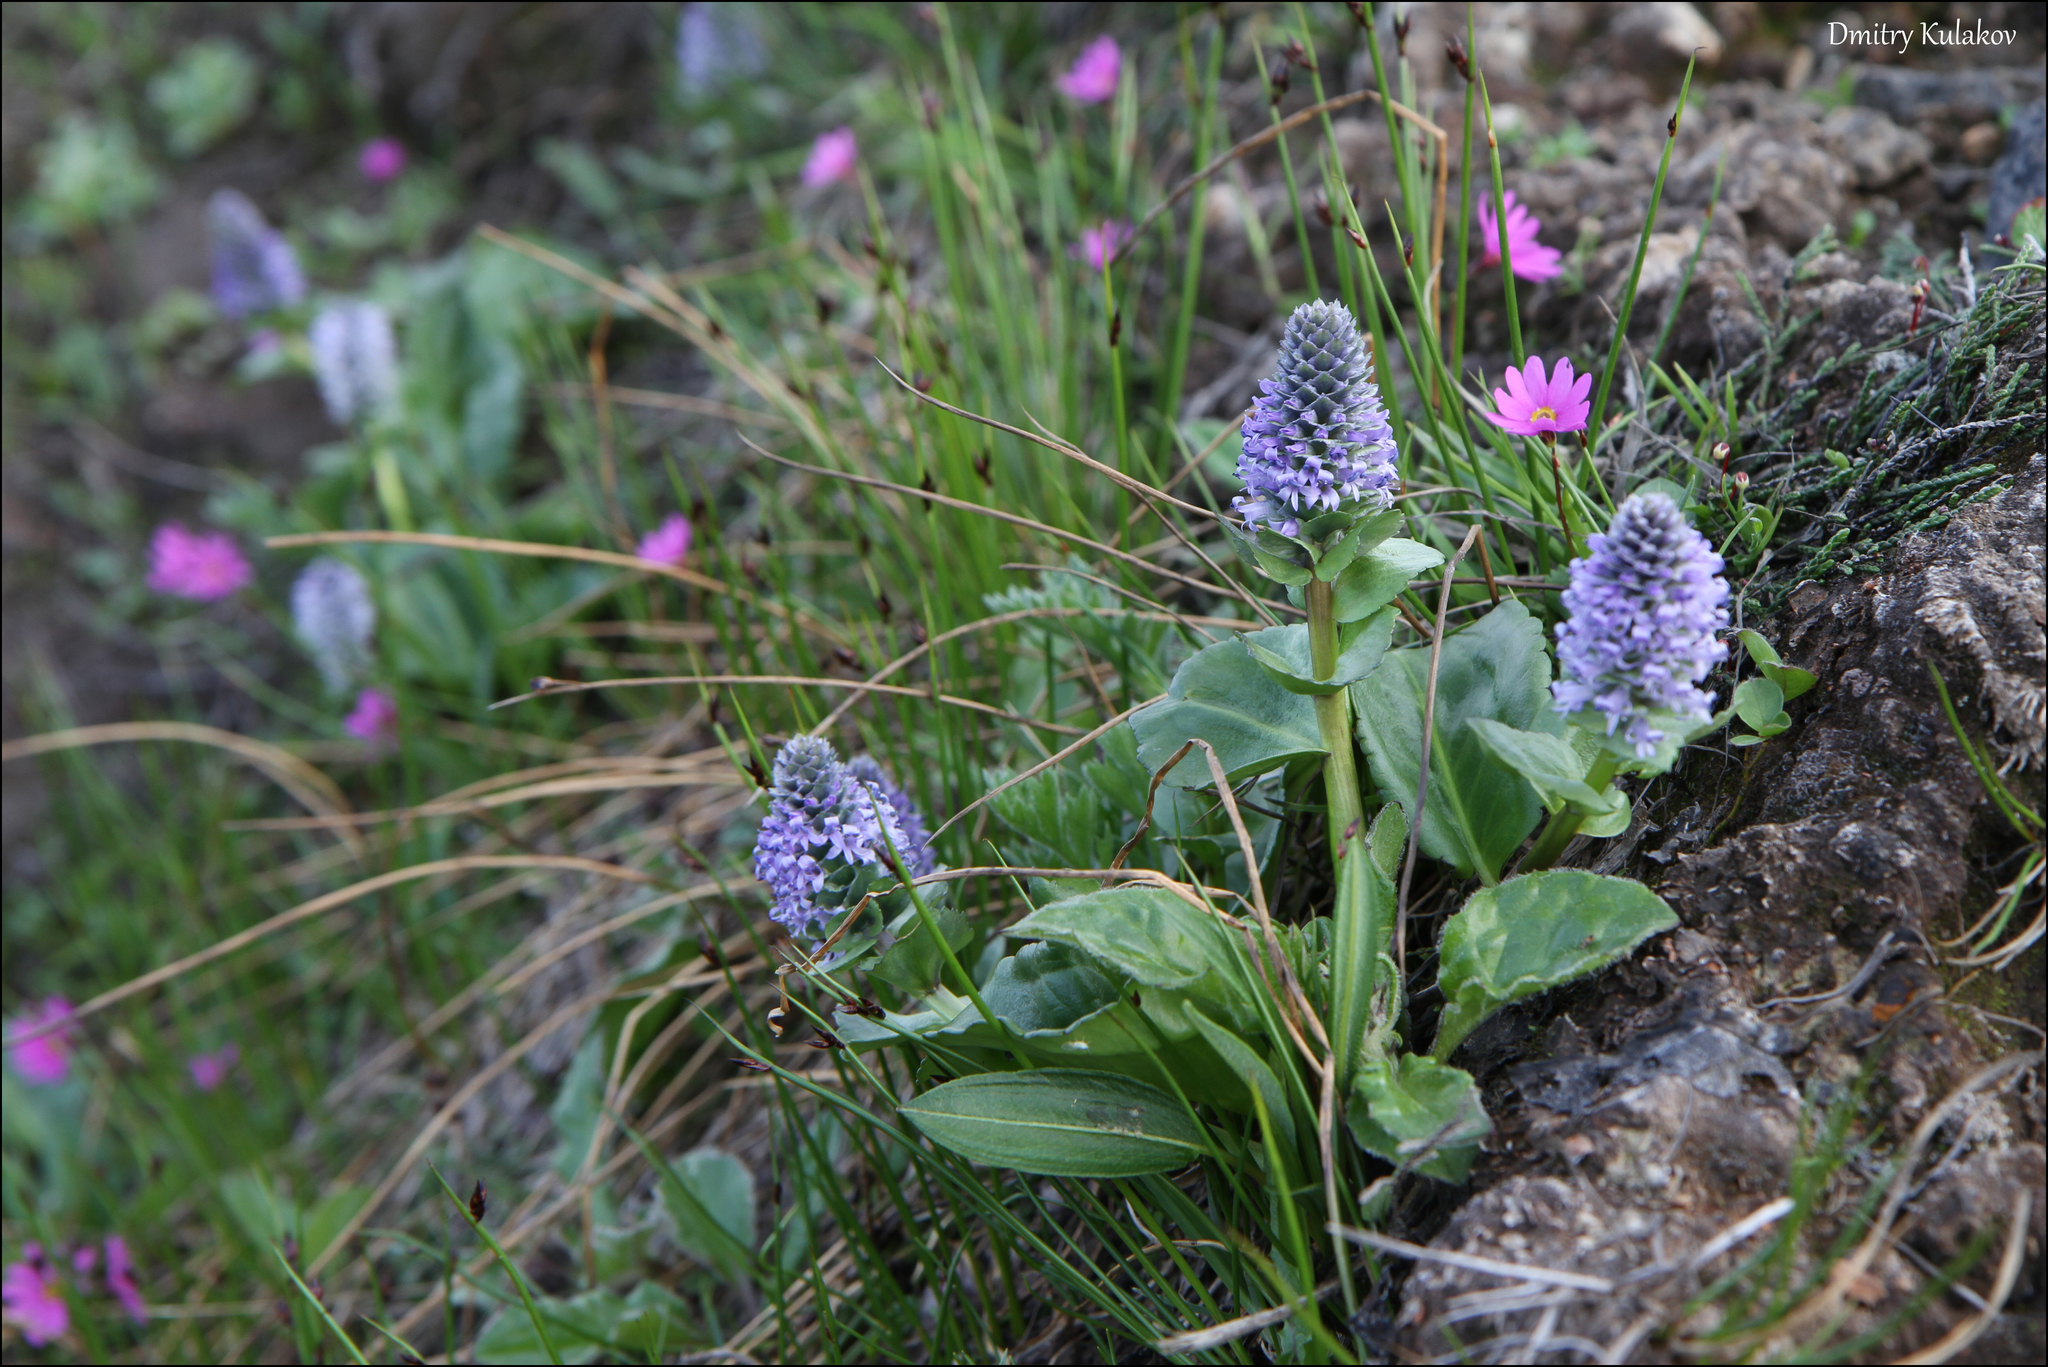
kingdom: Plantae
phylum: Tracheophyta
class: Magnoliopsida
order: Lamiales
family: Plantaginaceae
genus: Lagotis
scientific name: Lagotis glauca
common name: Glaucous weaselsnout
